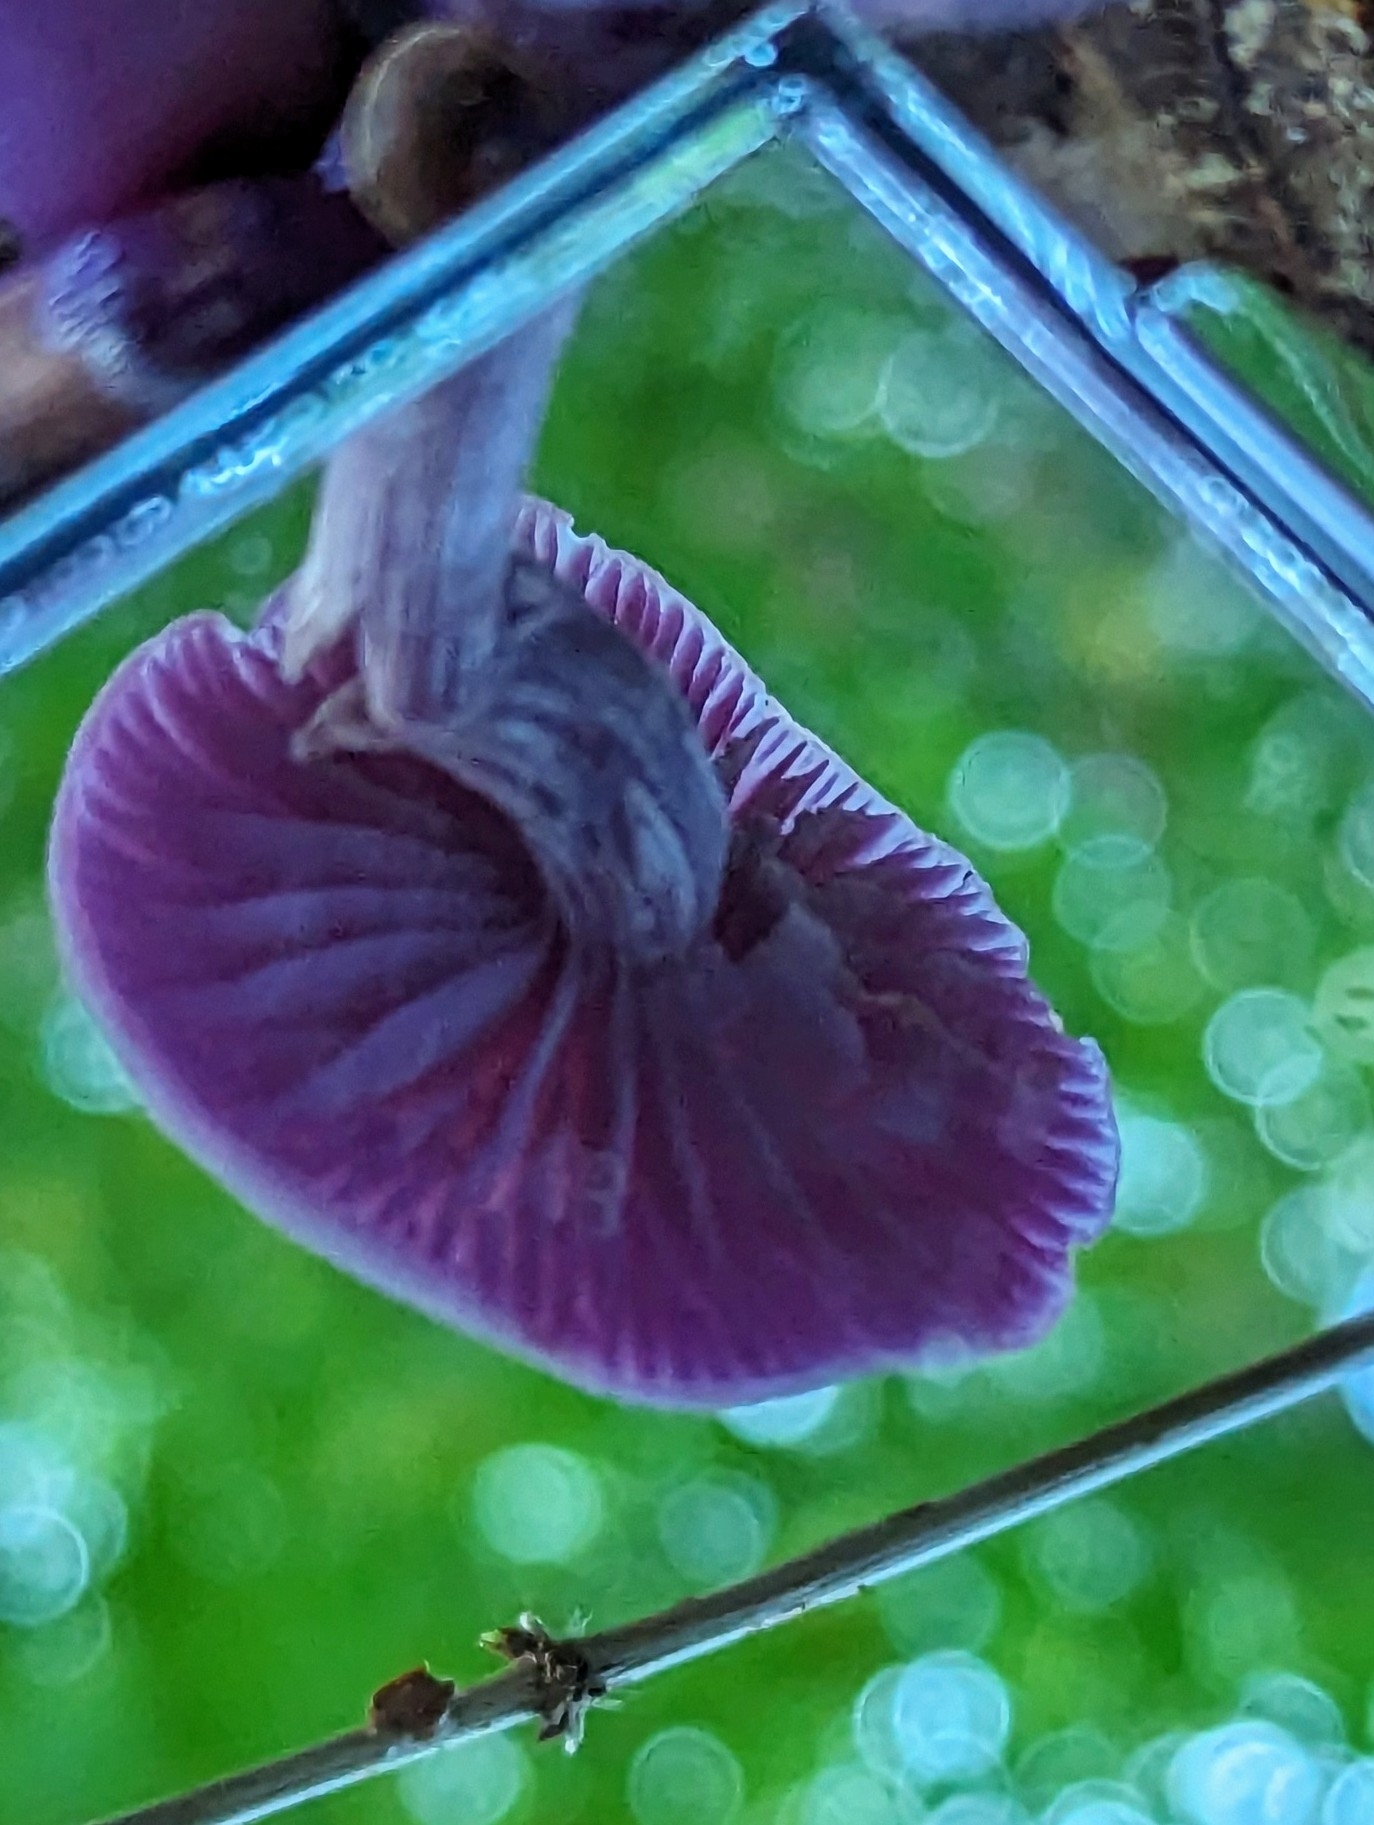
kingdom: Fungi
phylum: Basidiomycota
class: Agaricomycetes
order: Agaricales
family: Hydnangiaceae
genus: Laccaria
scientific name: Laccaria amethystina
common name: Amethyst deceiver
